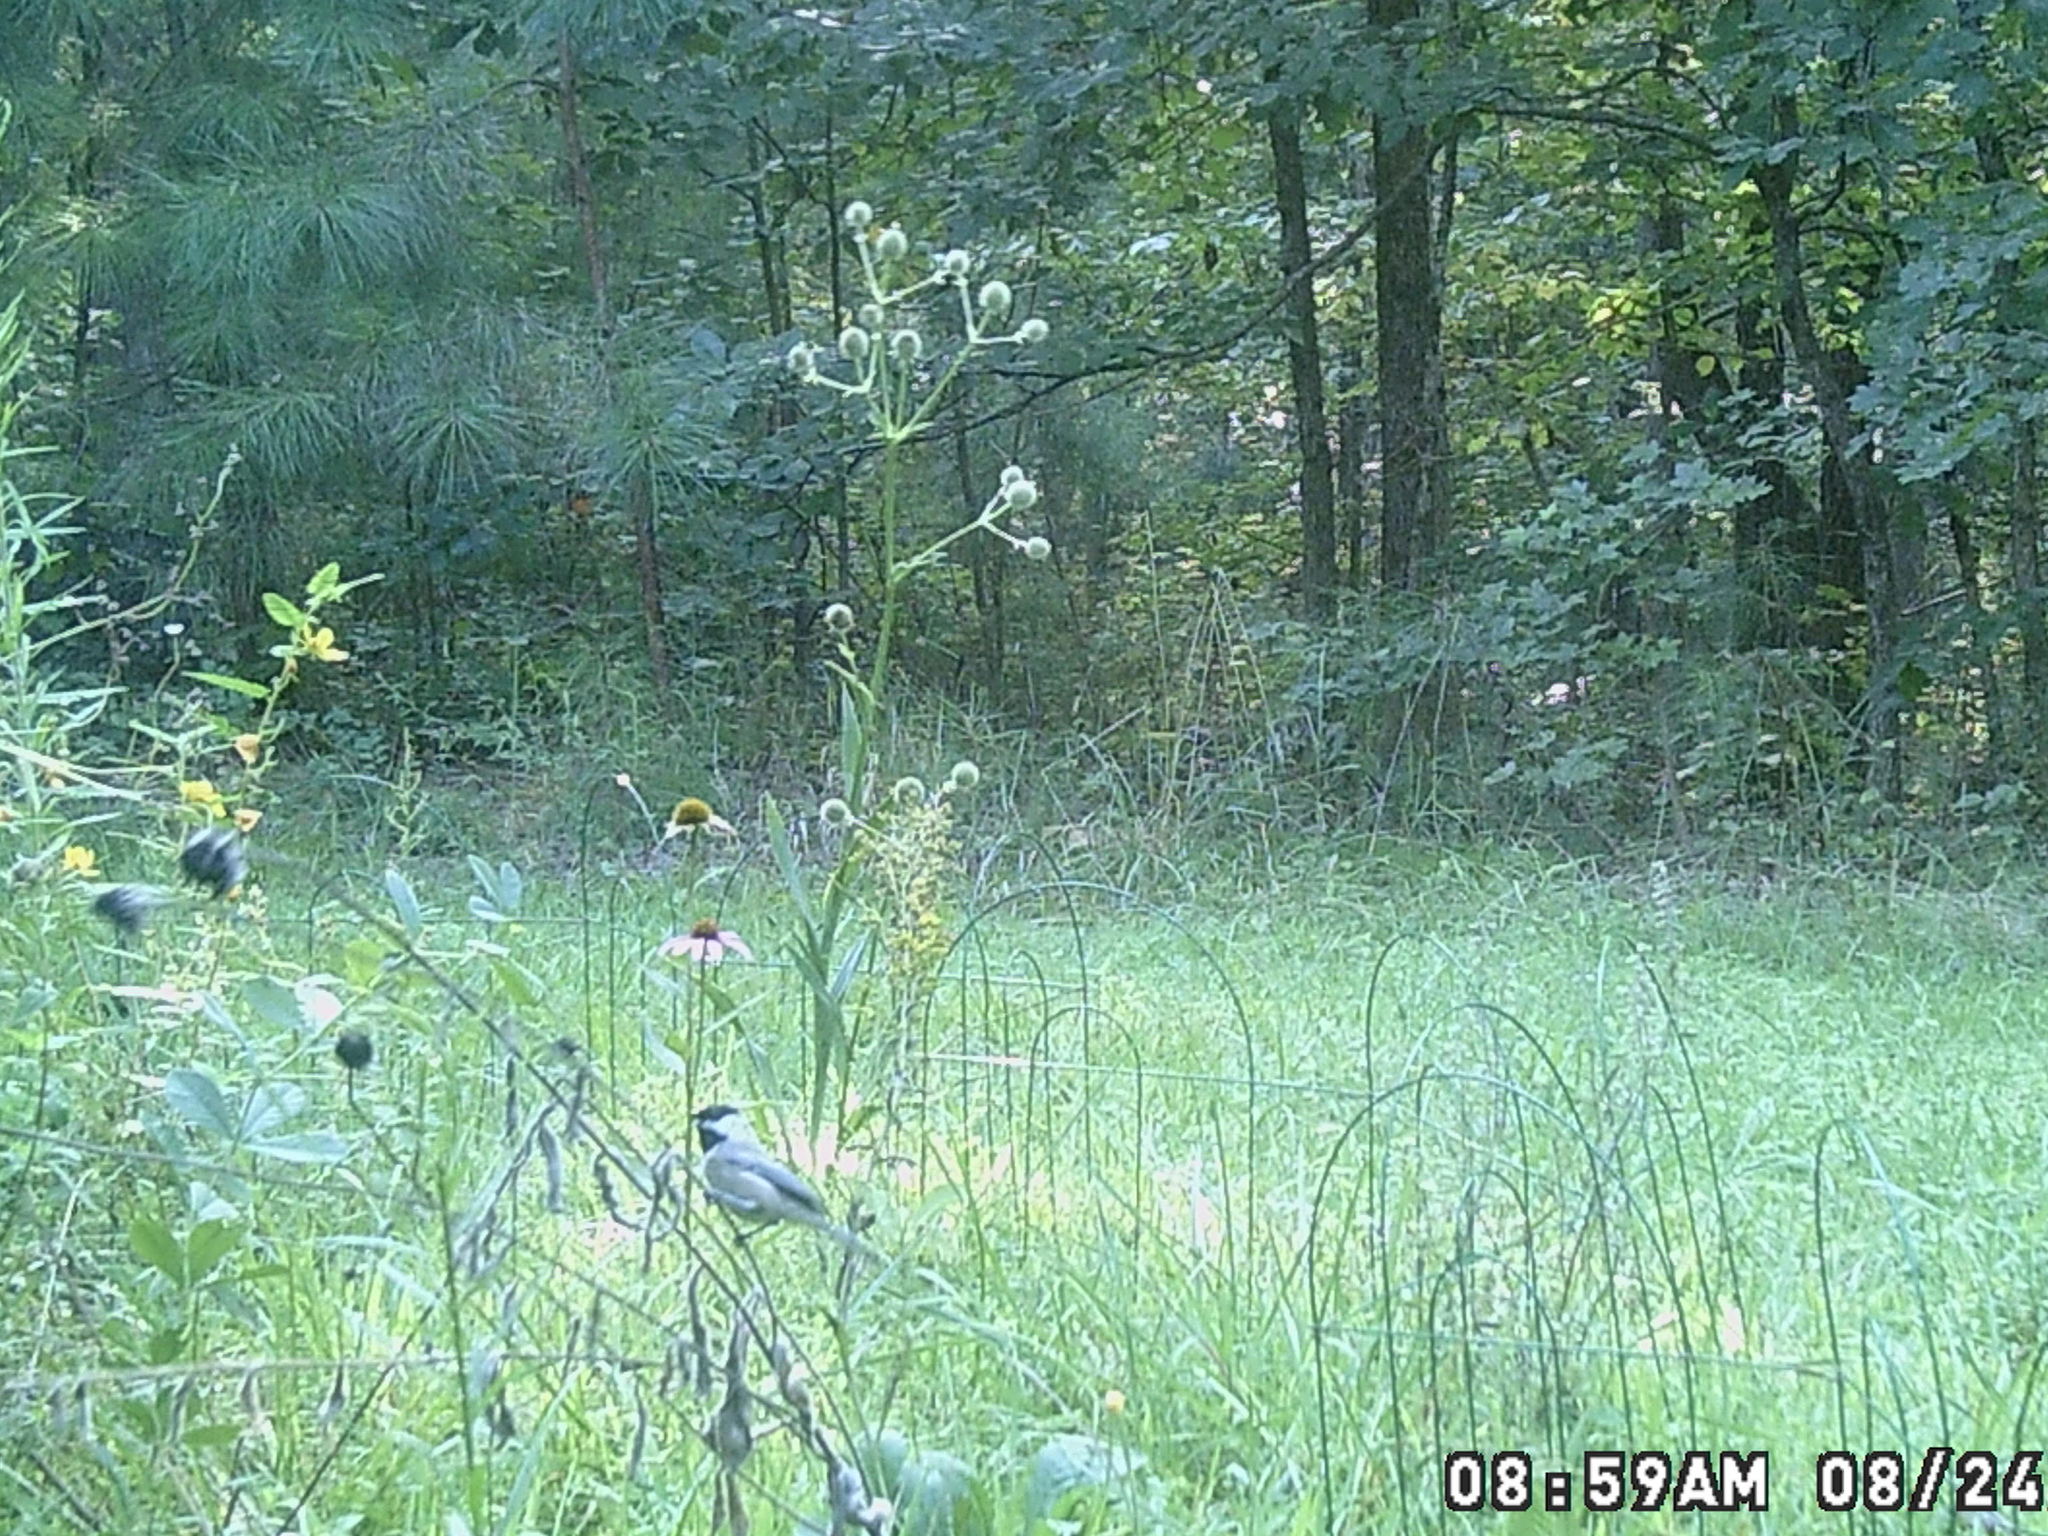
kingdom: Animalia
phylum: Chordata
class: Aves
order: Passeriformes
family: Paridae
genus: Poecile
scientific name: Poecile carolinensis
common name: Carolina chickadee
